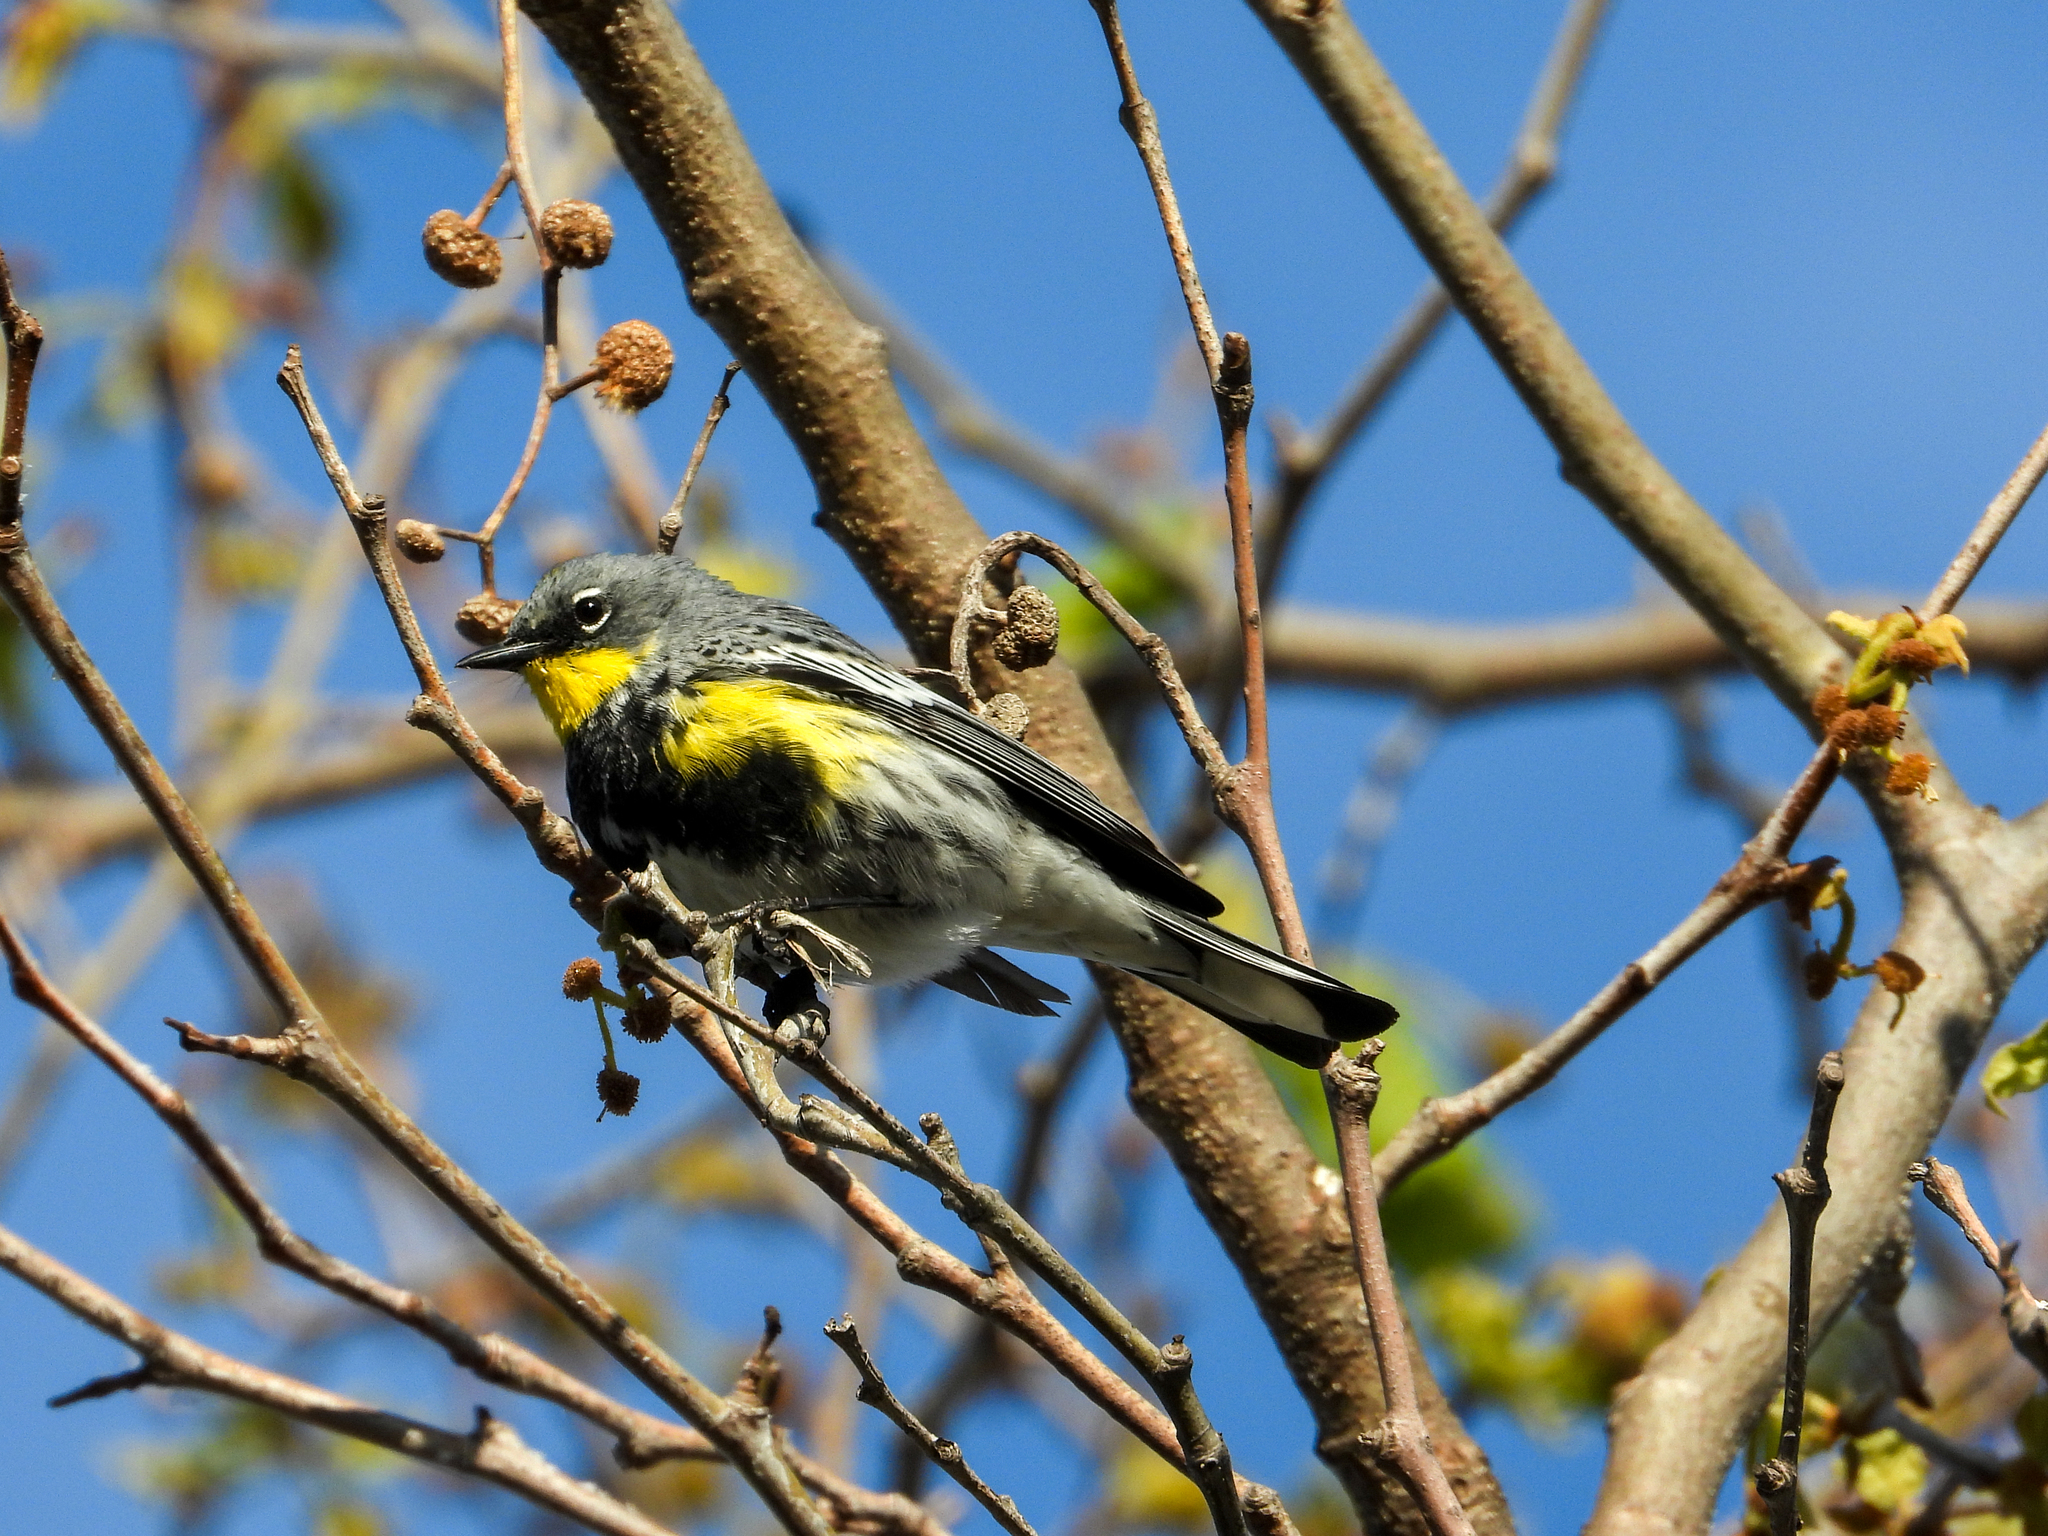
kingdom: Animalia
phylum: Chordata
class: Aves
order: Passeriformes
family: Parulidae
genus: Setophaga
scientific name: Setophaga coronata
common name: Myrtle warbler
